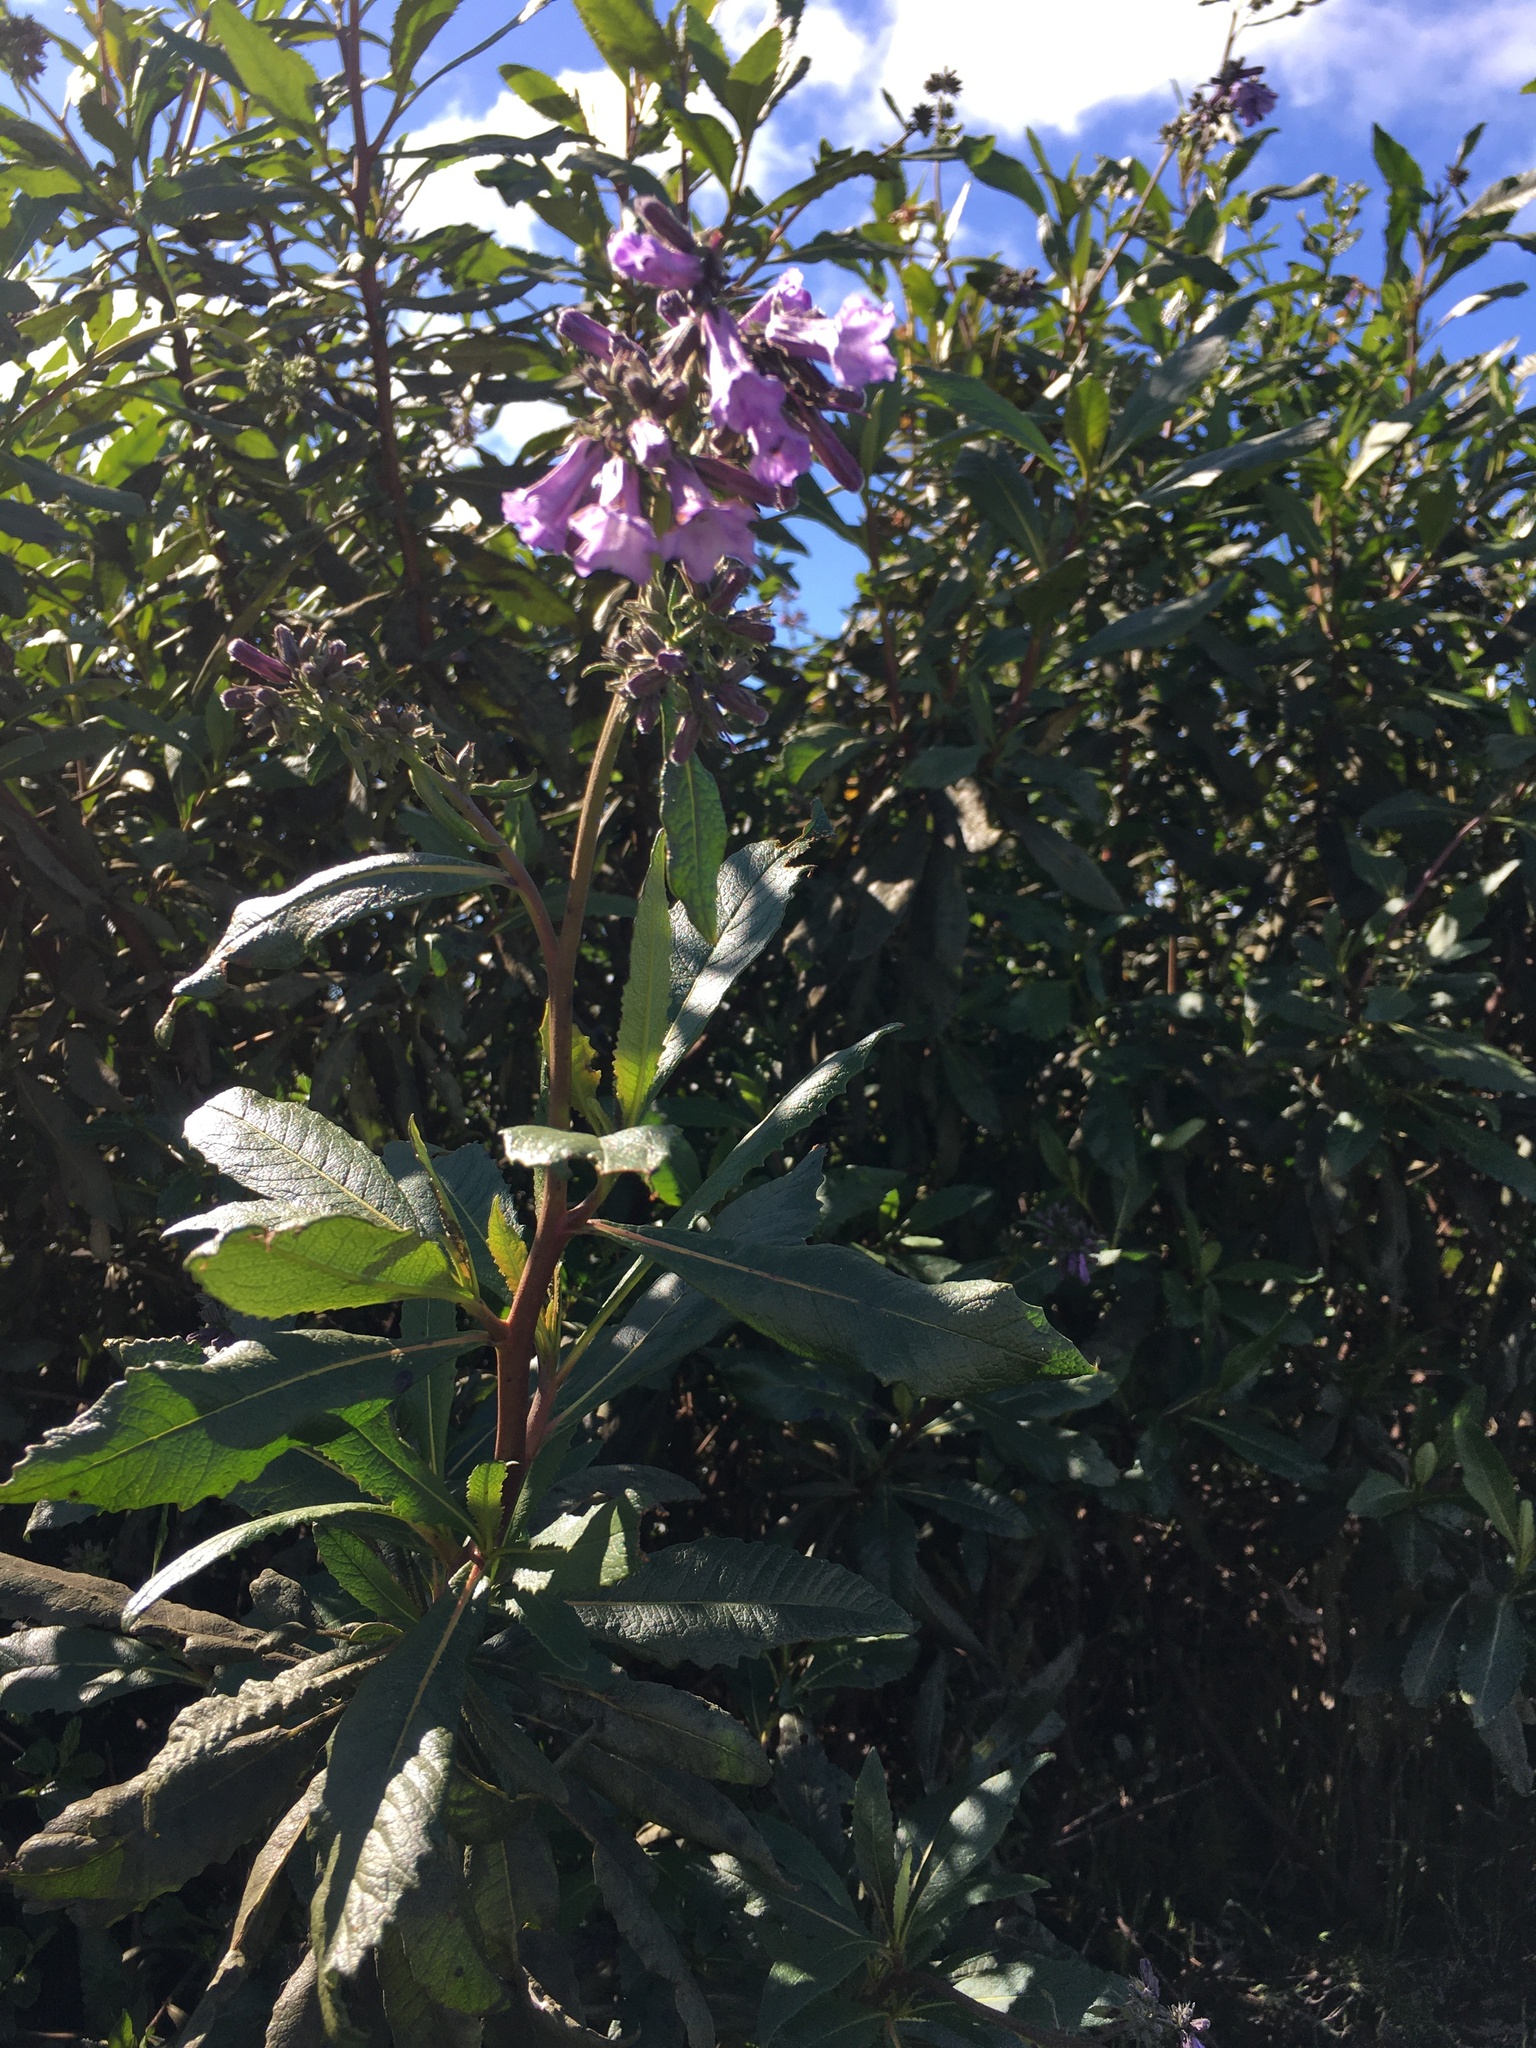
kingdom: Plantae
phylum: Tracheophyta
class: Magnoliopsida
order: Boraginales
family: Namaceae
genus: Eriodictyon
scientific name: Eriodictyon californicum
